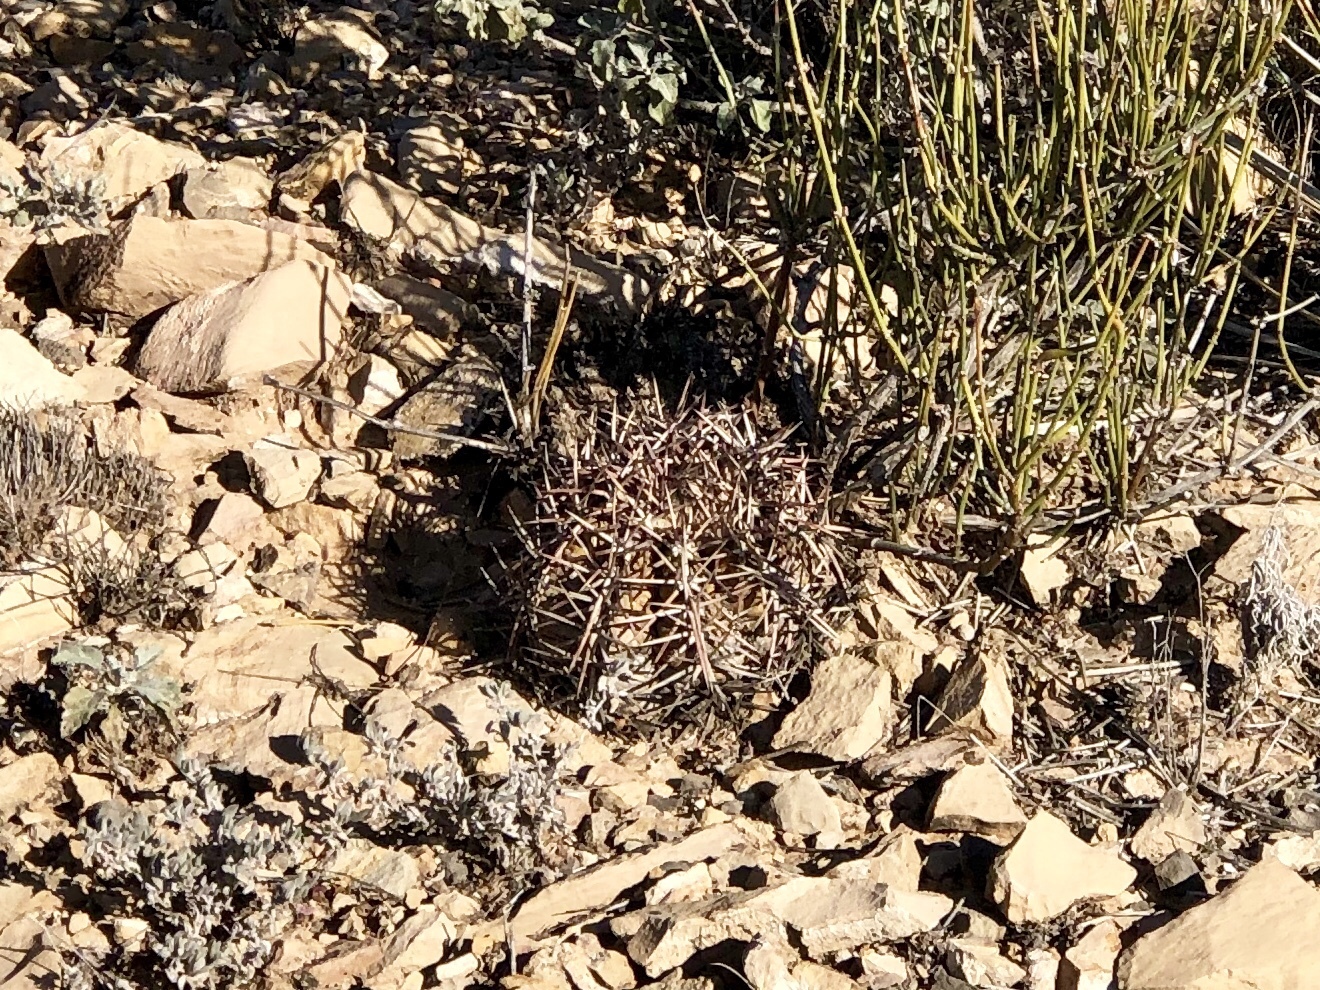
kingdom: Plantae
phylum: Tracheophyta
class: Magnoliopsida
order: Caryophyllales
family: Cactaceae
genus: Echinocactus
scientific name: Echinocactus horizonthalonius
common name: Devilshead
